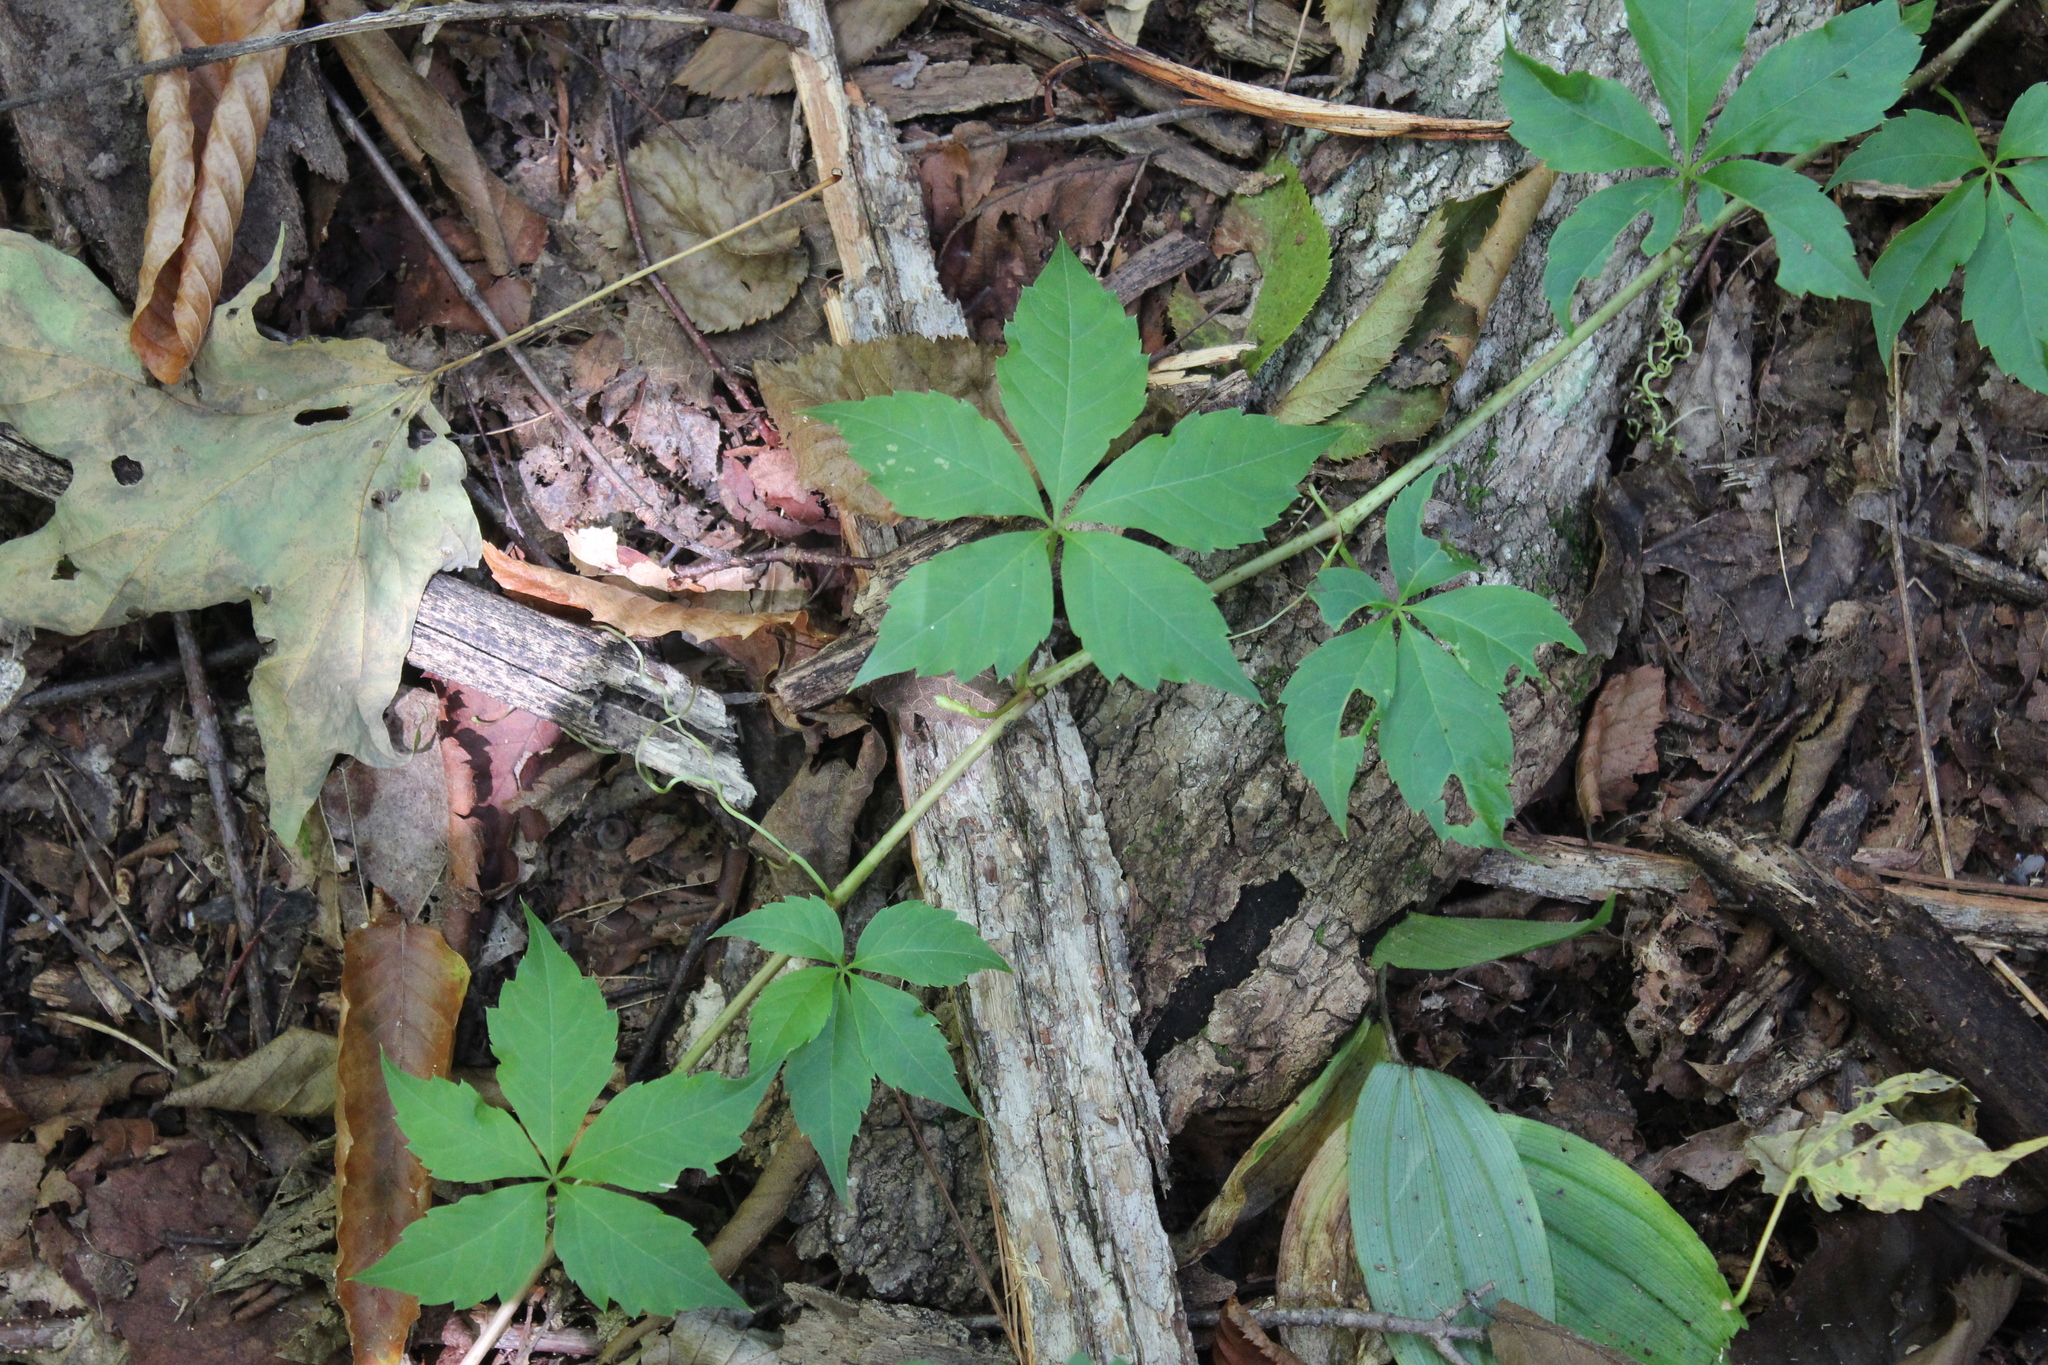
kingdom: Plantae
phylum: Tracheophyta
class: Magnoliopsida
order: Vitales
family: Vitaceae
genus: Parthenocissus
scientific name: Parthenocissus quinquefolia
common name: Virginia-creeper
